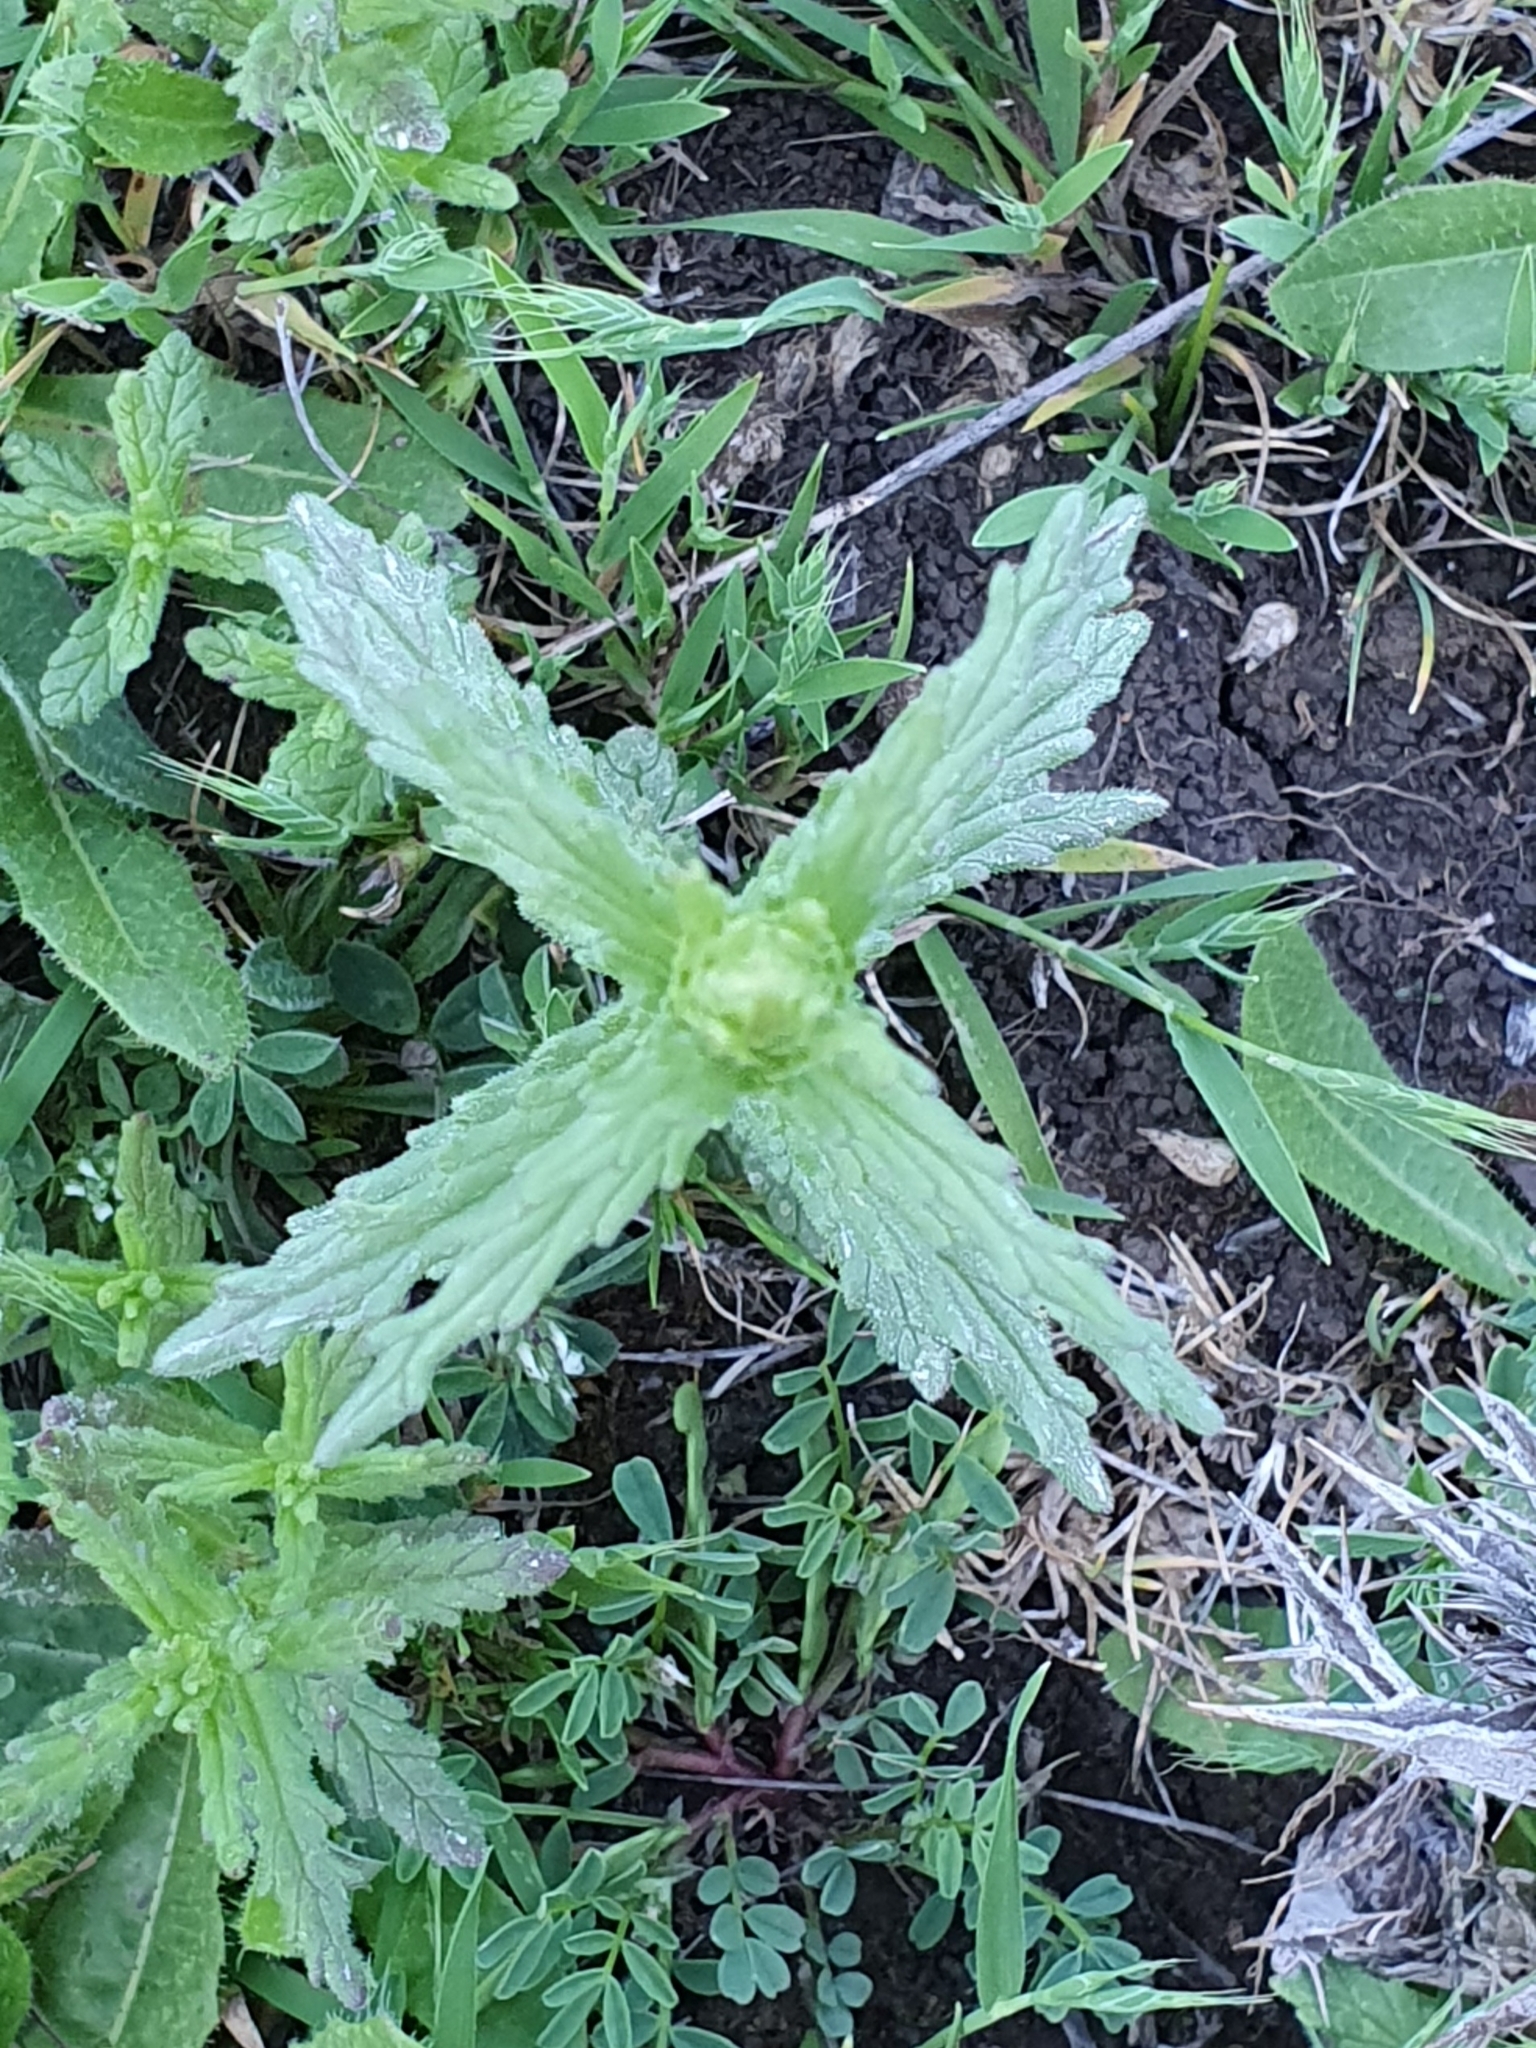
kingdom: Plantae
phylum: Tracheophyta
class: Magnoliopsida
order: Lamiales
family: Orobanchaceae
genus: Bellardia
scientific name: Bellardia trixago
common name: Mediterranean lineseed
